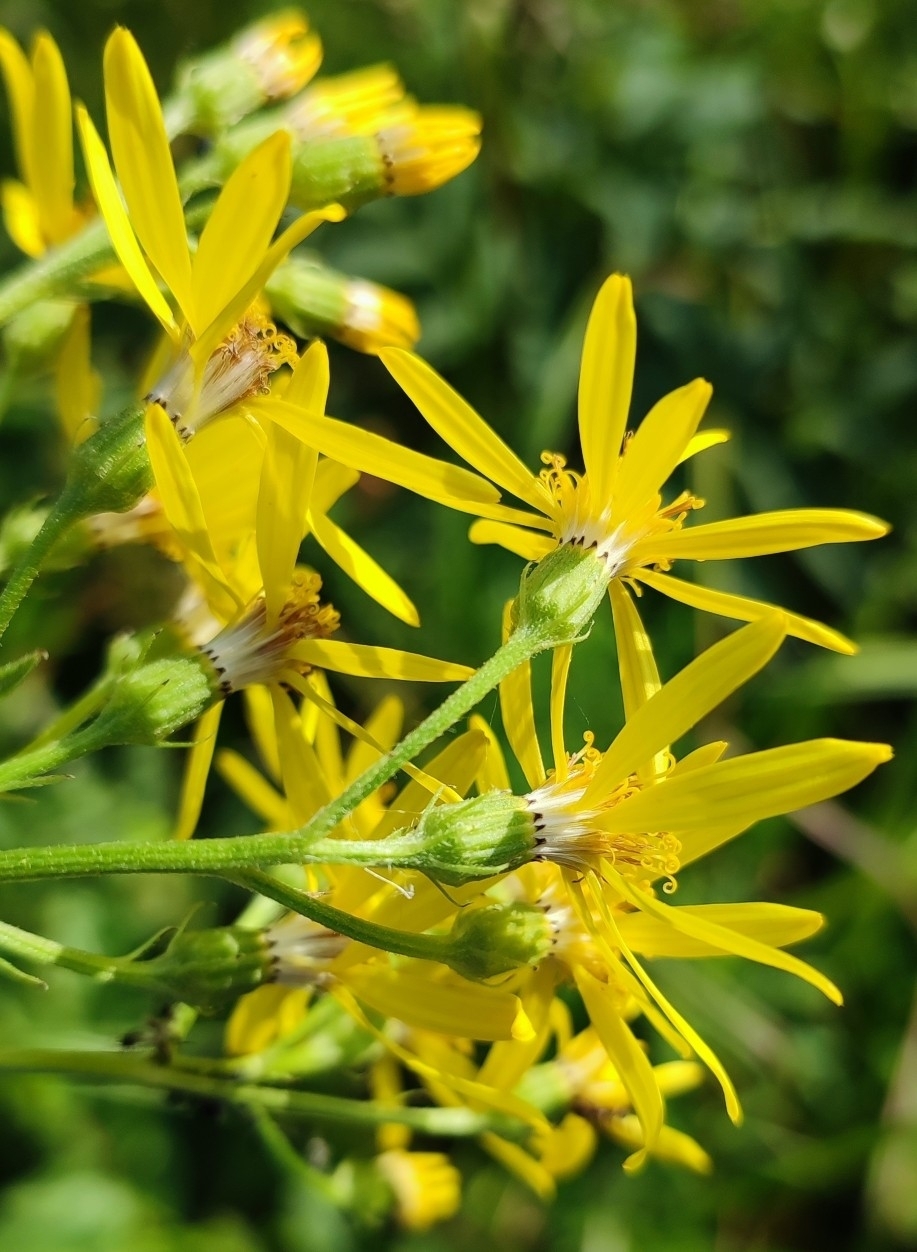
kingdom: Plantae
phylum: Tracheophyta
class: Magnoliopsida
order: Asterales
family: Asteraceae
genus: Senecio
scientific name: Senecio sarracenicus
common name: Broad-leaved ragwort
